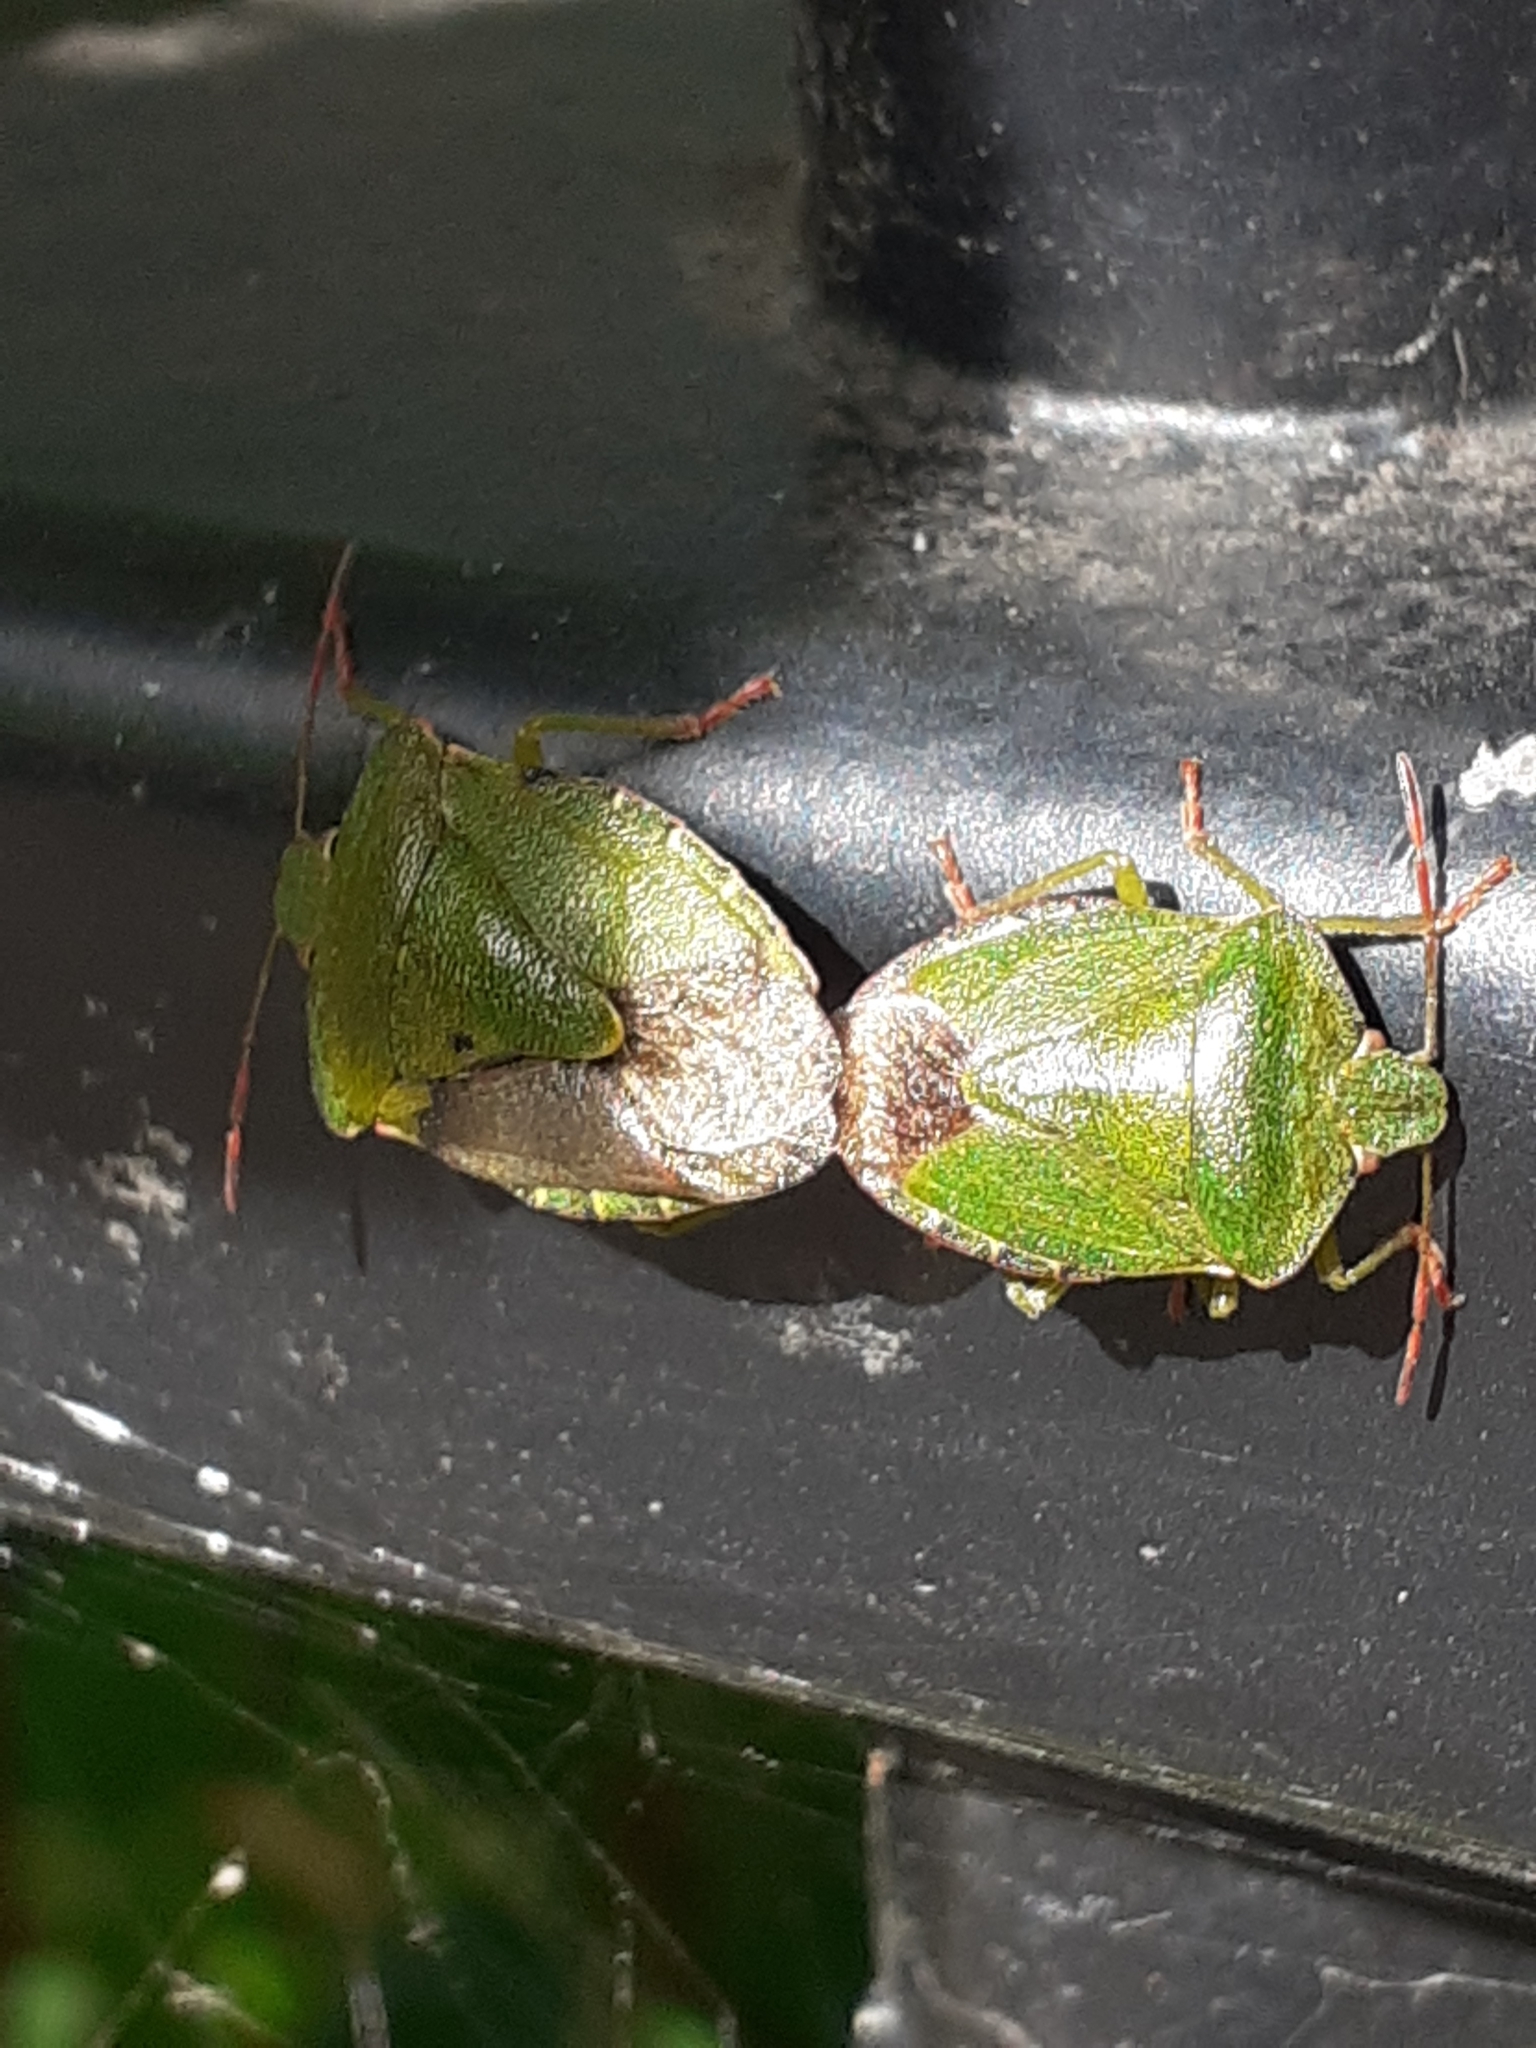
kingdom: Animalia
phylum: Arthropoda
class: Insecta
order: Hemiptera
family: Pentatomidae
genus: Palomena
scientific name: Palomena prasina
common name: Green shieldbug
